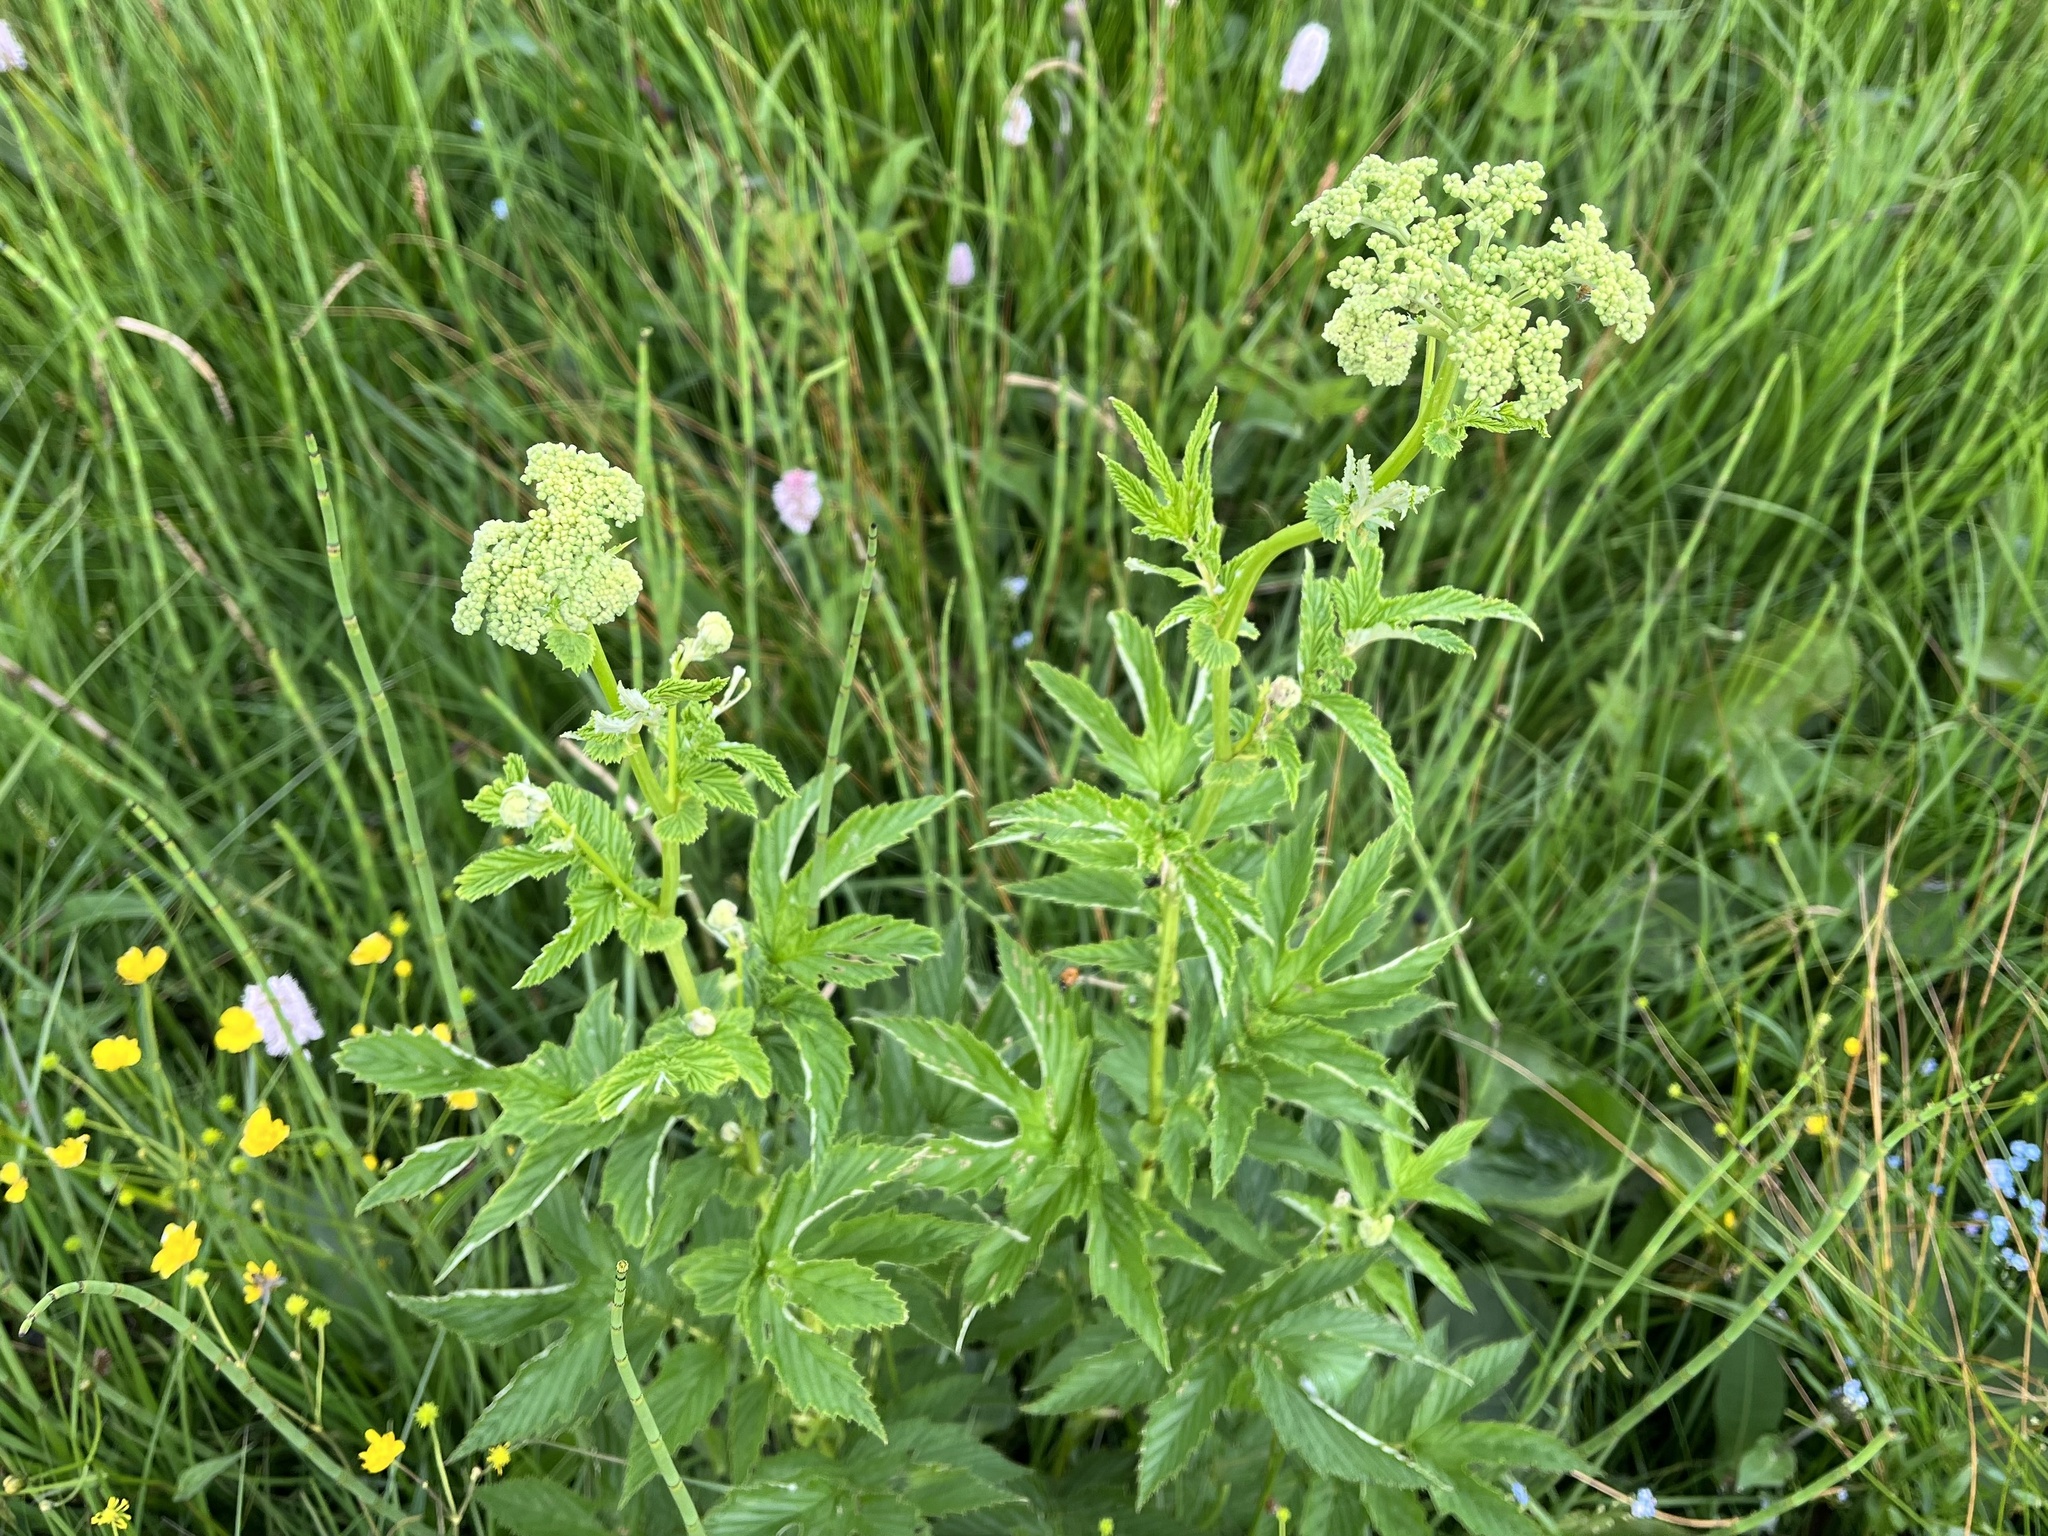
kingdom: Plantae
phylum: Tracheophyta
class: Magnoliopsida
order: Rosales
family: Rosaceae
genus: Filipendula
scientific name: Filipendula ulmaria
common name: Meadowsweet
